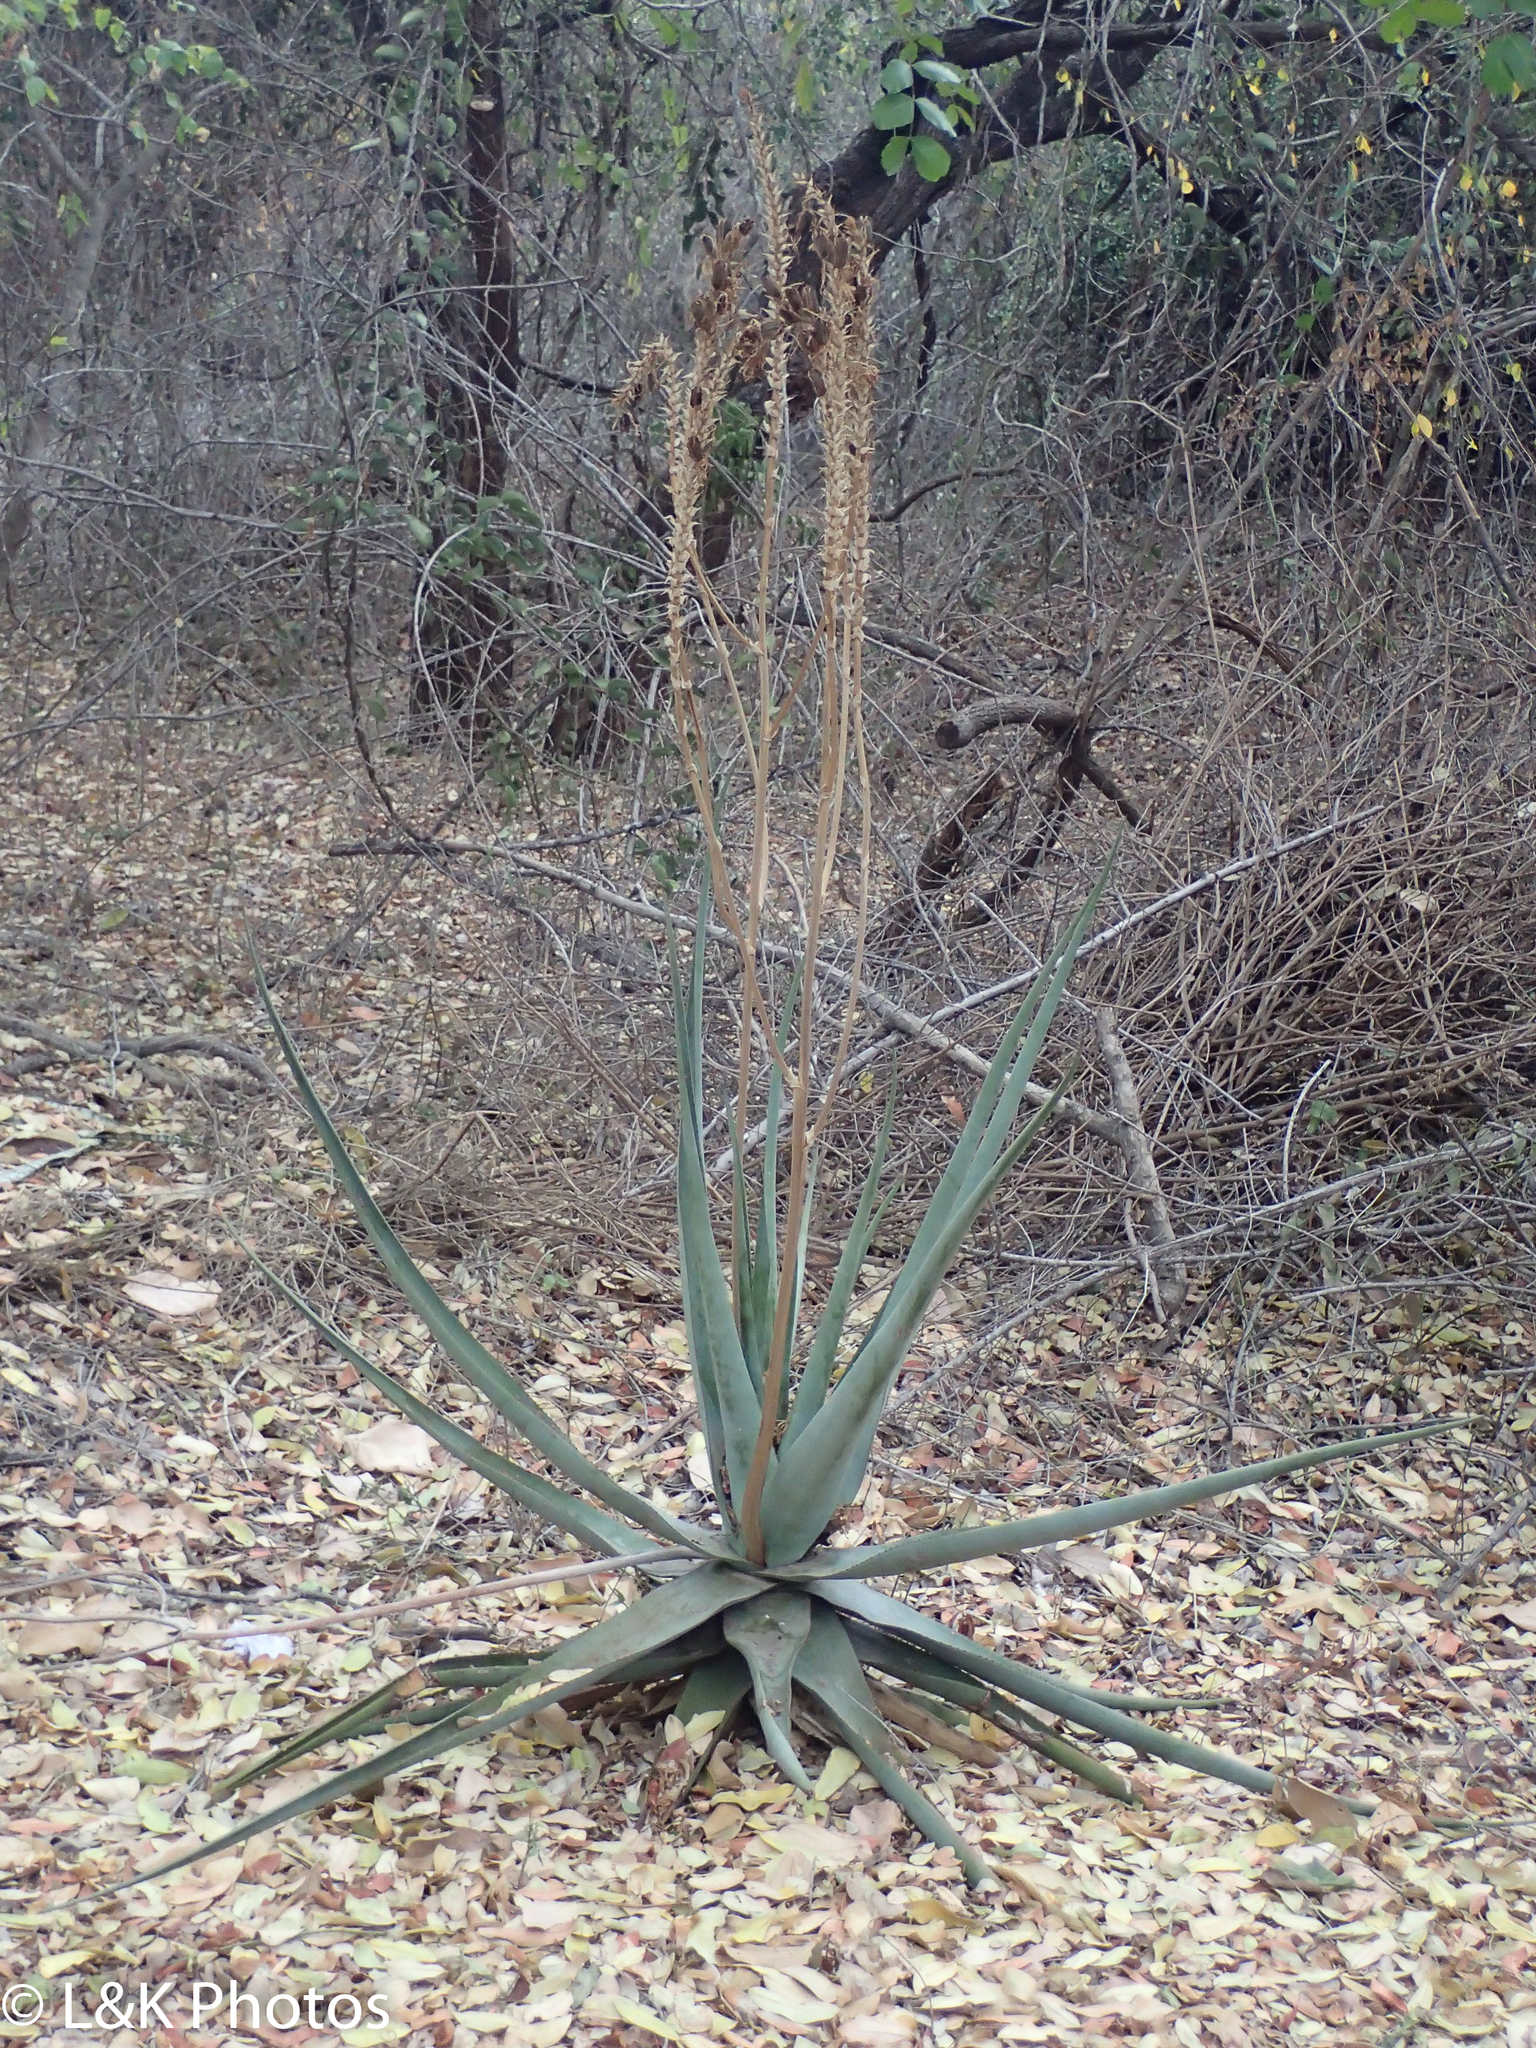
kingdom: Plantae
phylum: Tracheophyta
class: Liliopsida
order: Asparagales
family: Asphodelaceae
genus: Aloe
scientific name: Aloe pienaarii
